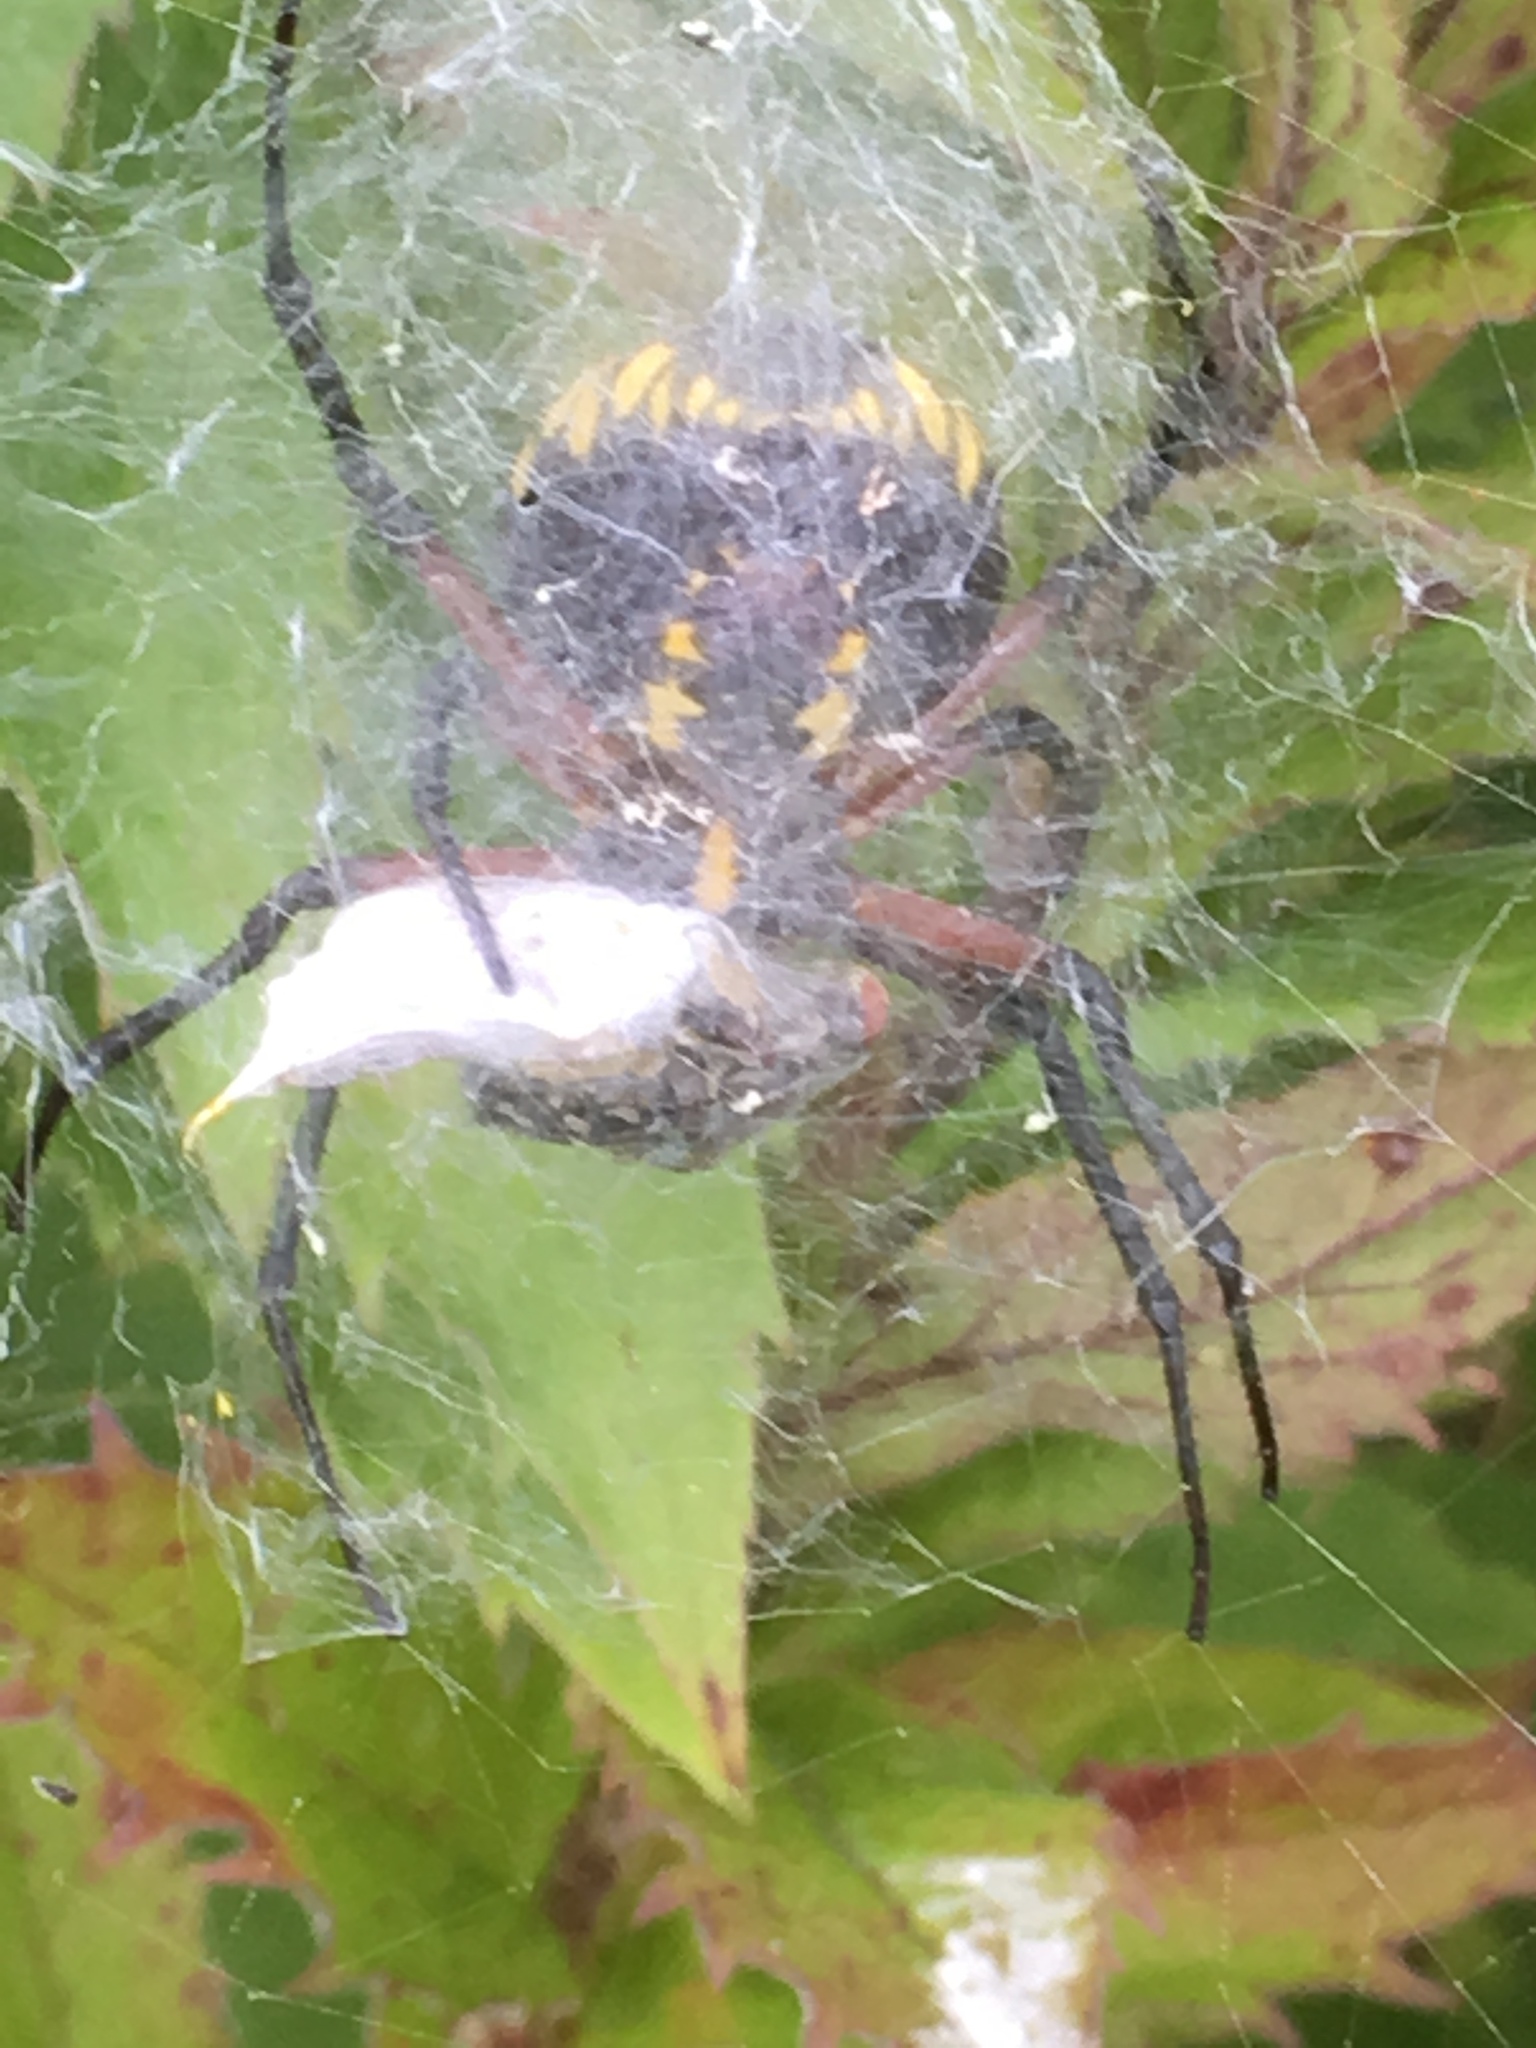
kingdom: Animalia
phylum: Arthropoda
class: Arachnida
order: Araneae
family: Araneidae
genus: Argiope
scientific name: Argiope aurantia
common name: Orb weavers
